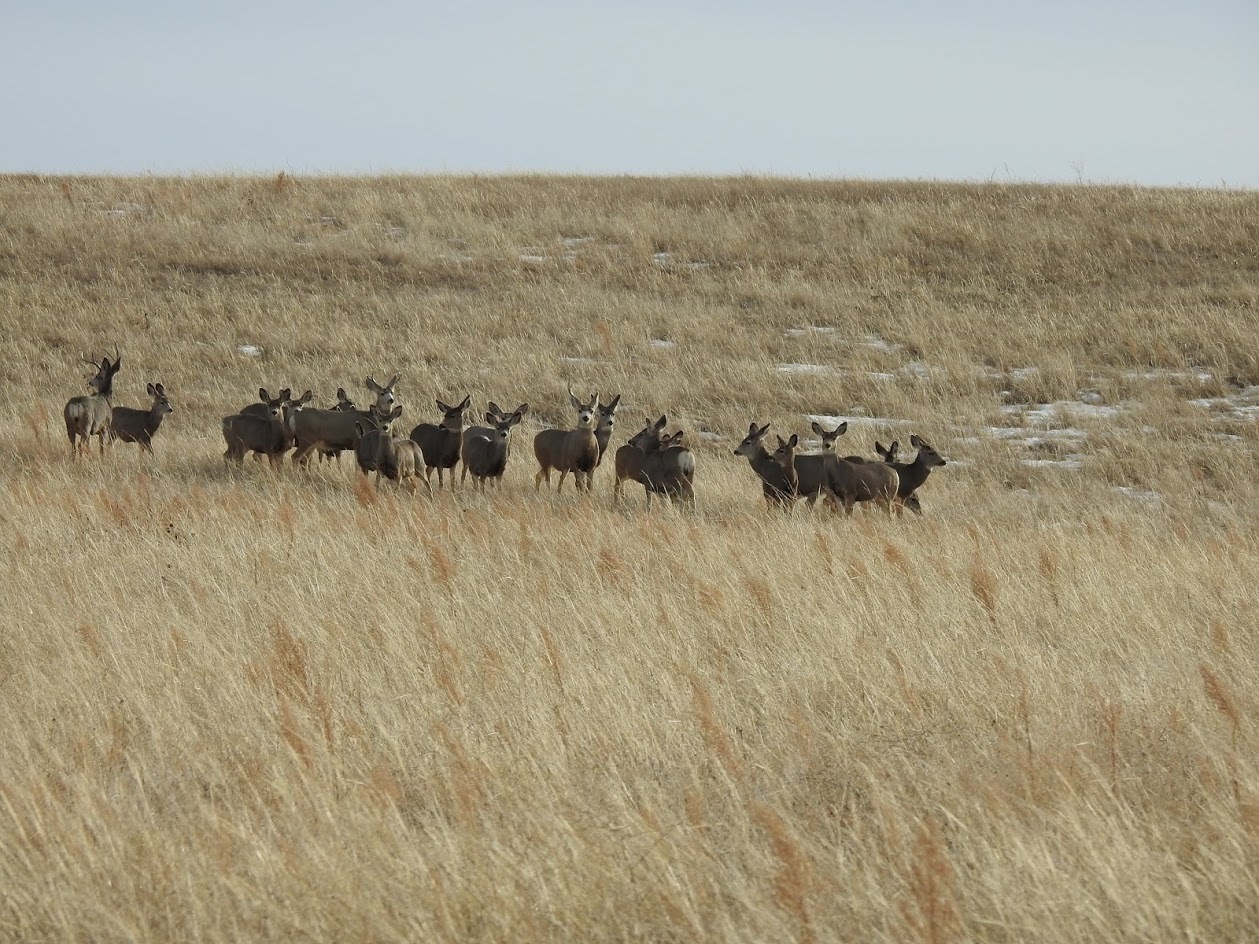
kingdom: Animalia
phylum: Chordata
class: Mammalia
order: Artiodactyla
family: Cervidae
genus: Odocoileus
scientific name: Odocoileus hemionus
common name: Mule deer
